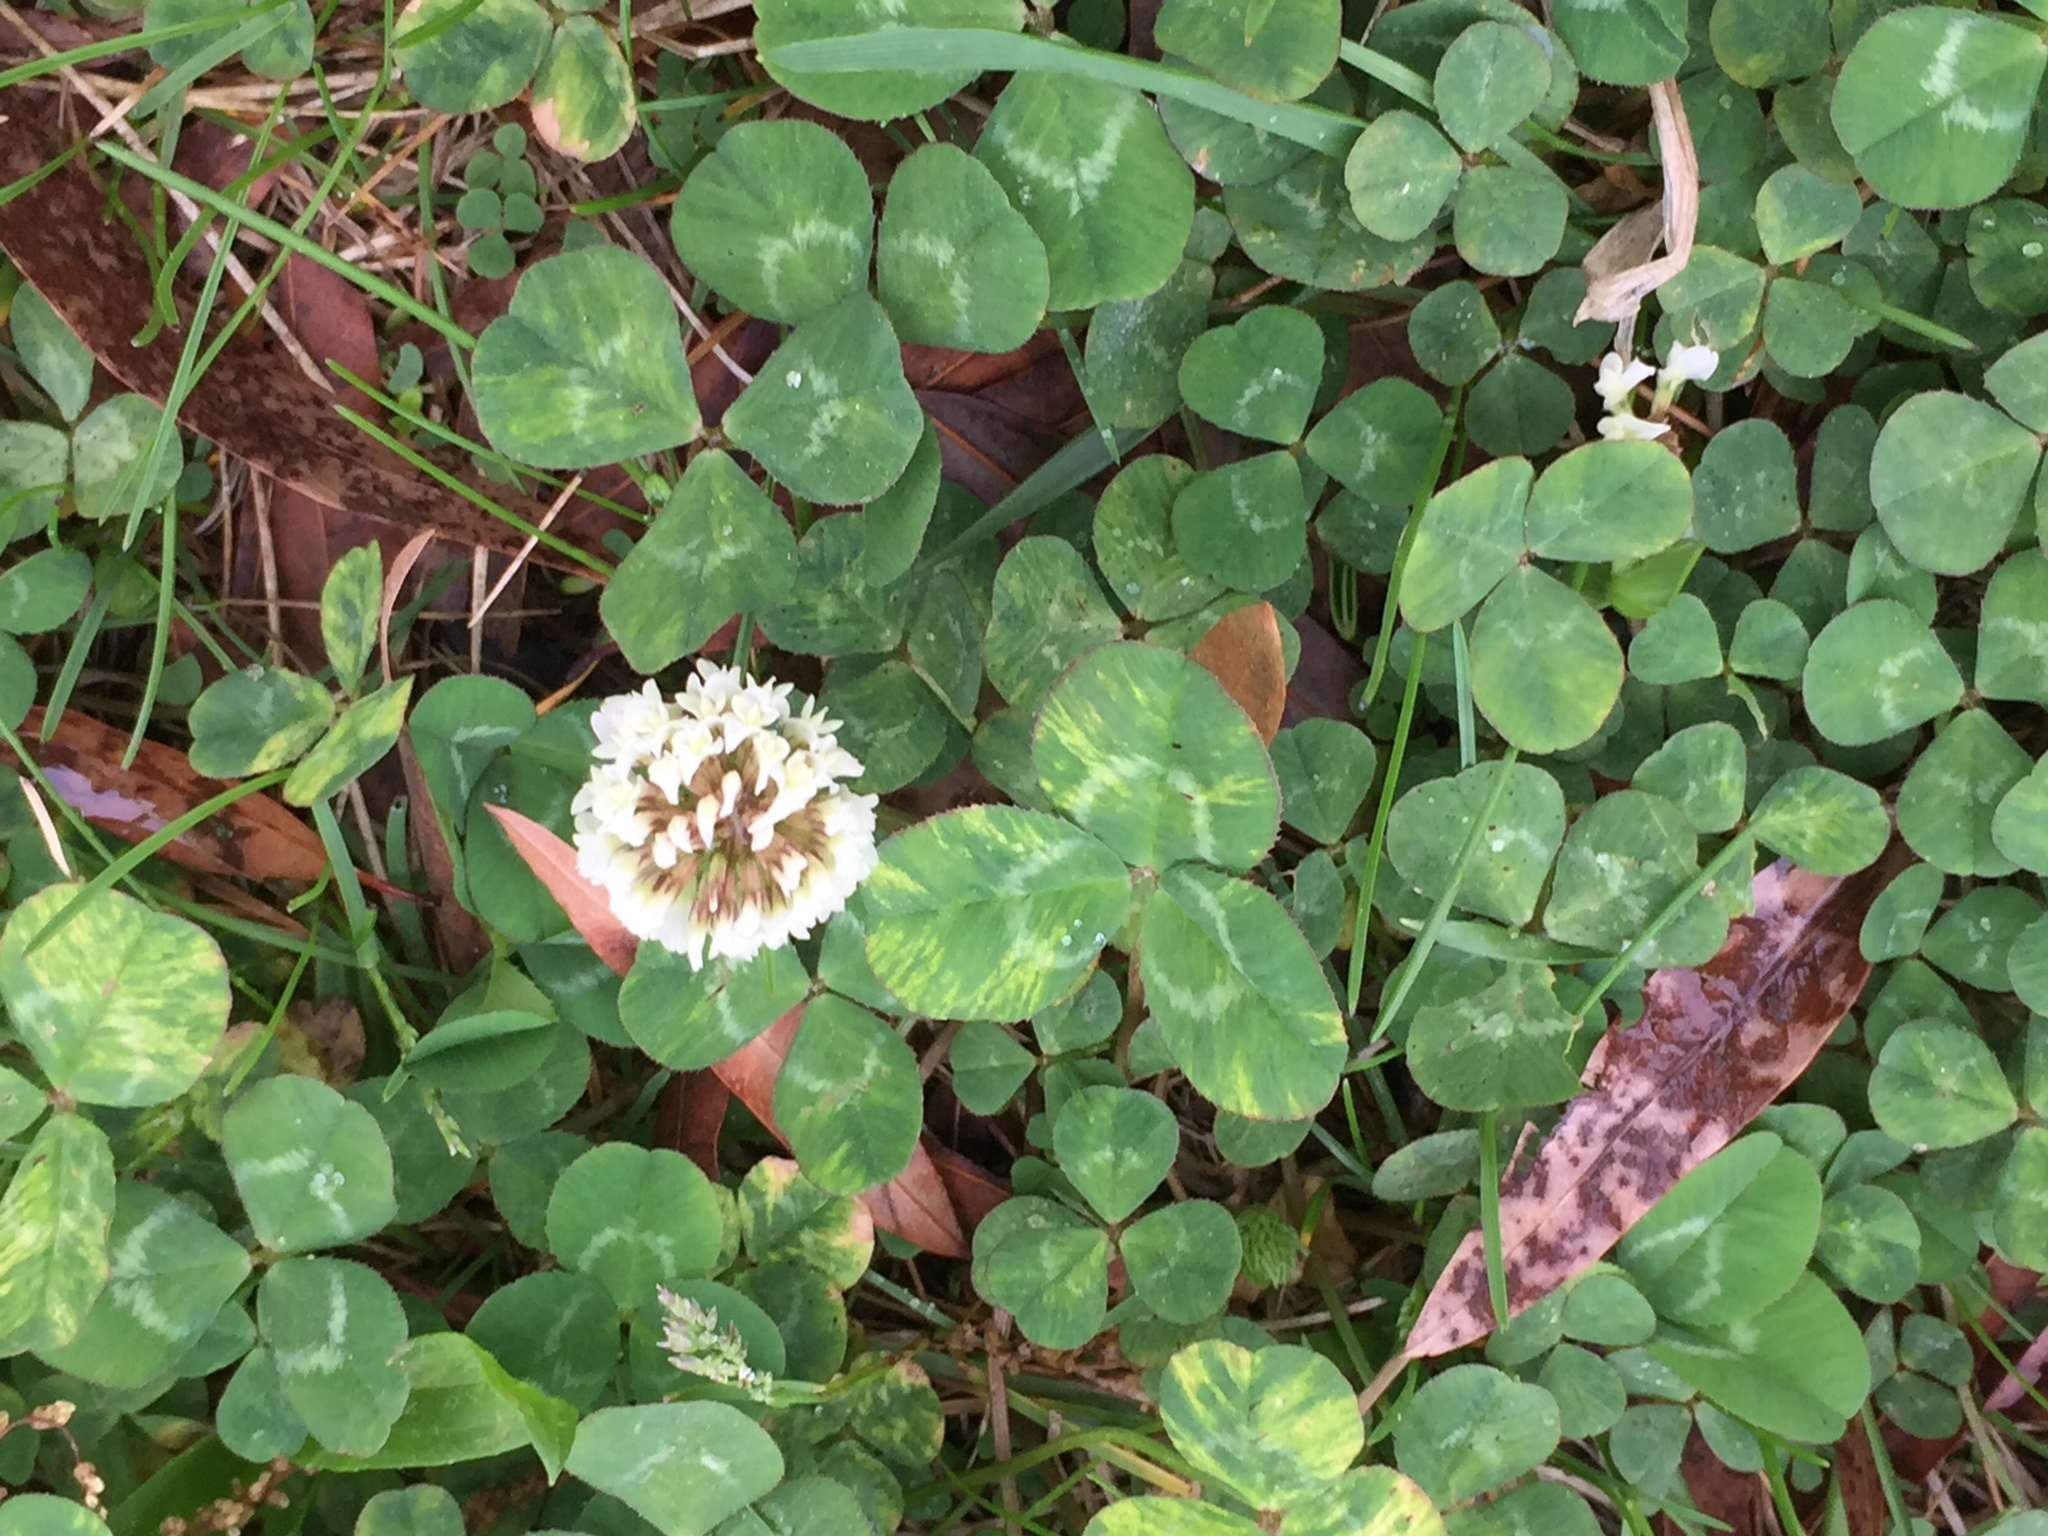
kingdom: Plantae
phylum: Tracheophyta
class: Magnoliopsida
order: Fabales
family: Fabaceae
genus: Trifolium
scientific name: Trifolium repens
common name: White clover
